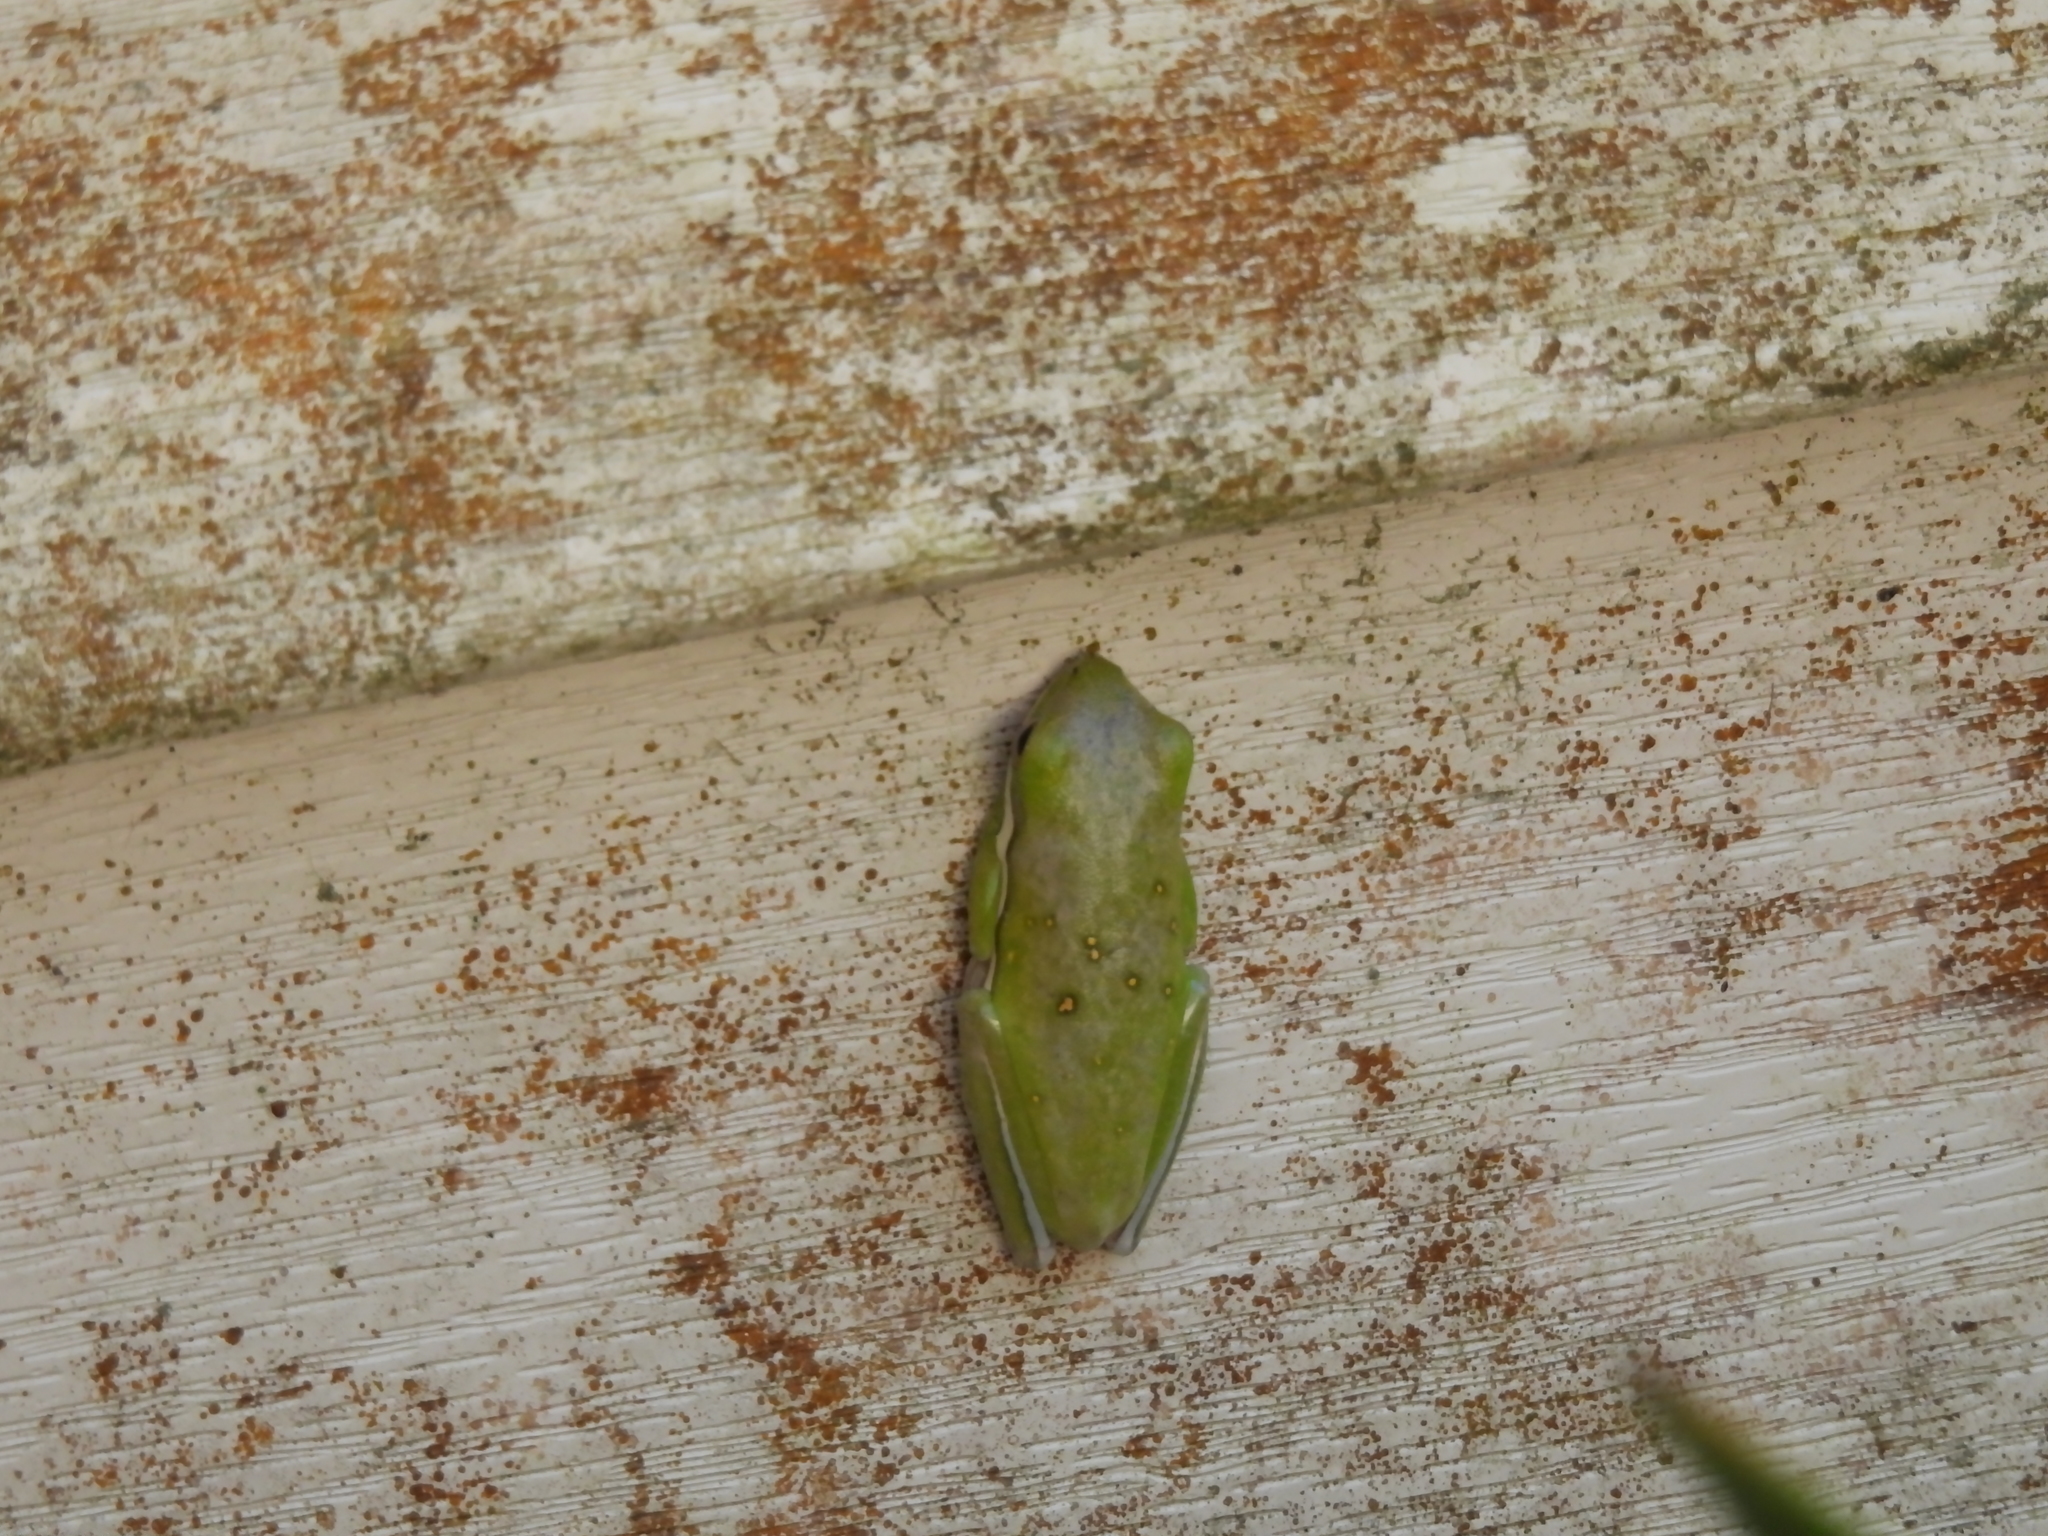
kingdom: Animalia
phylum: Chordata
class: Amphibia
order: Anura
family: Hylidae
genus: Dryophytes
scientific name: Dryophytes cinereus
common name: Green treefrog
